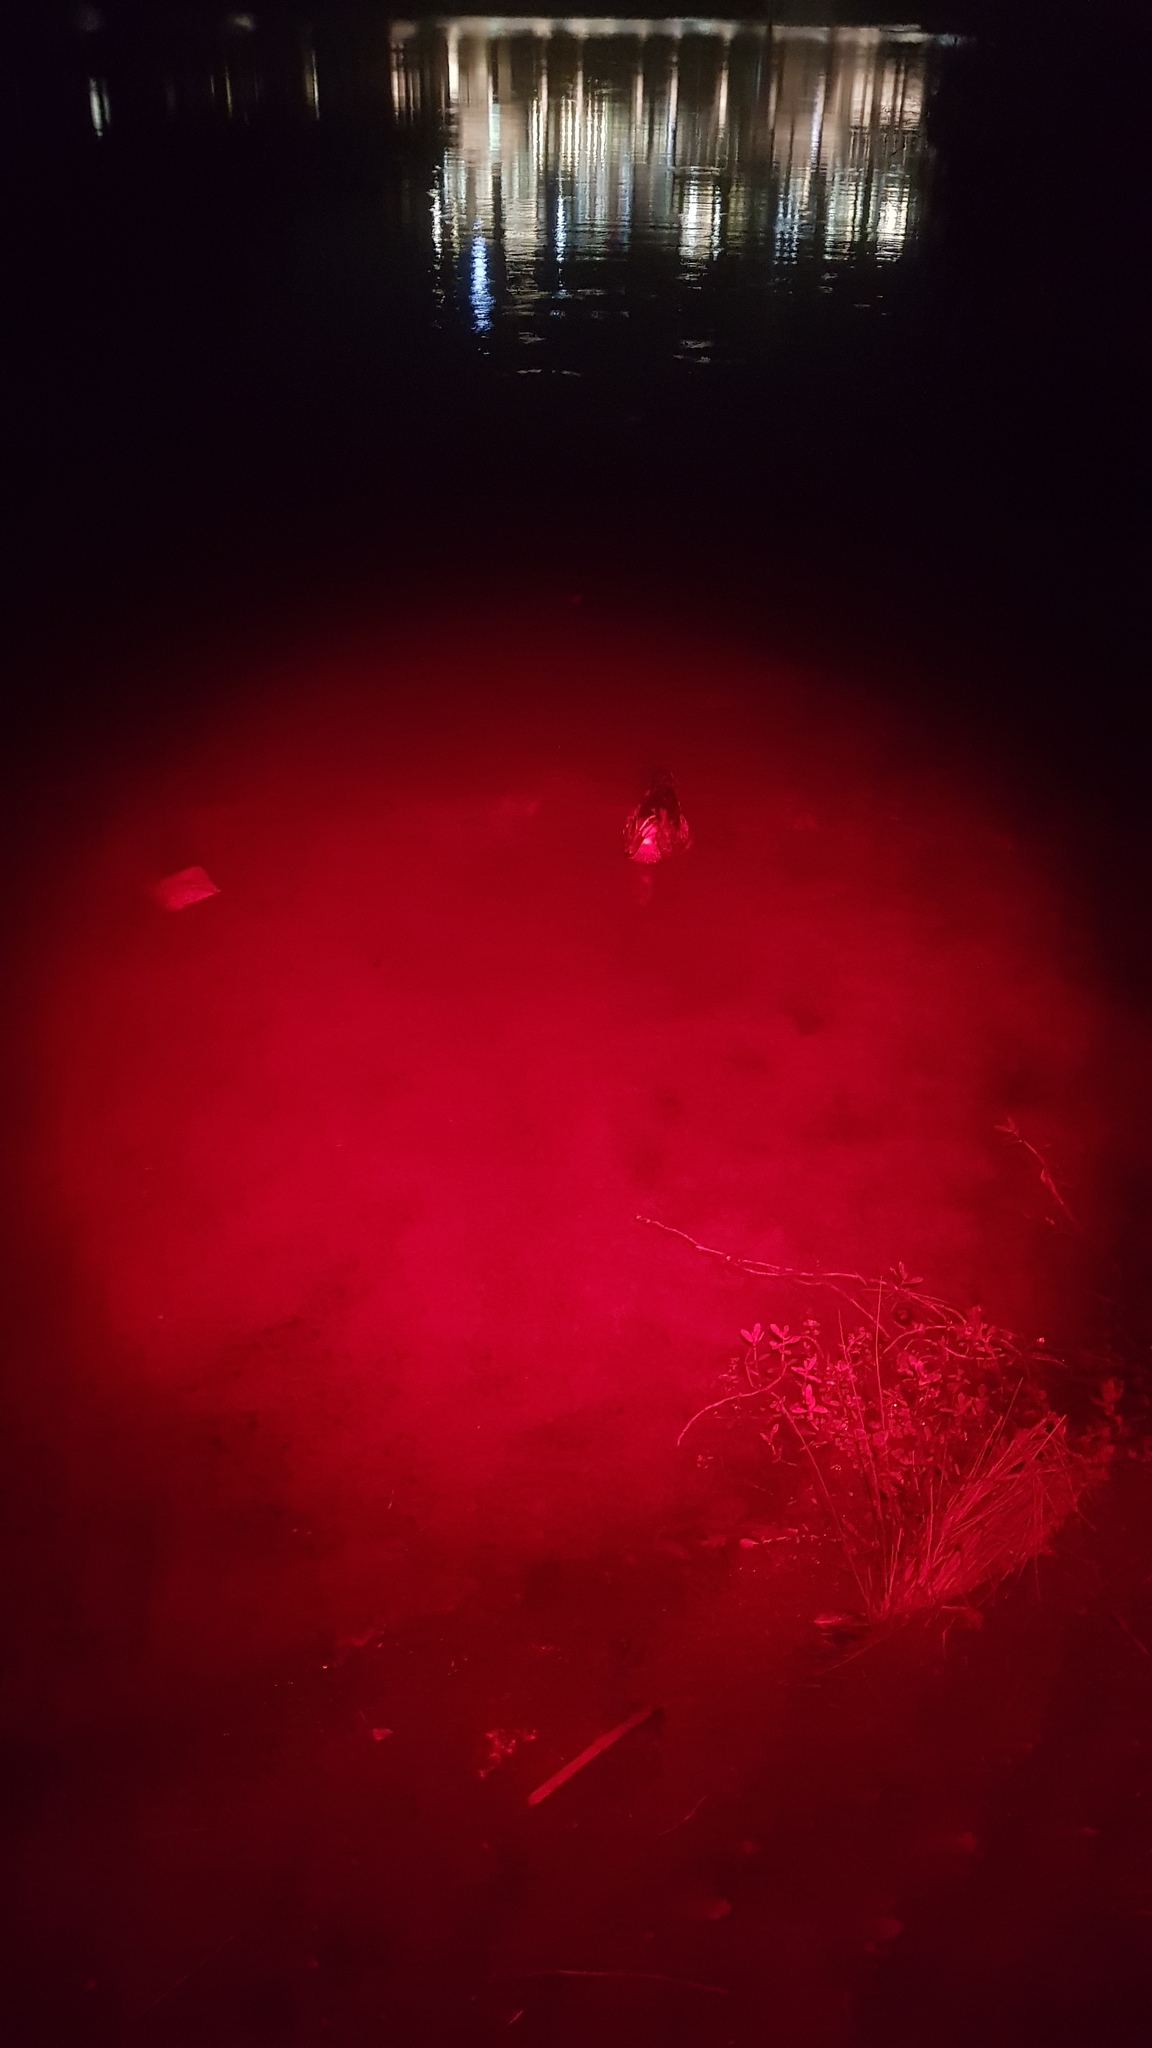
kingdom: Animalia
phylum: Chordata
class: Aves
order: Anseriformes
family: Anatidae
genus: Anas
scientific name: Anas superciliosa
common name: Pacific black duck
